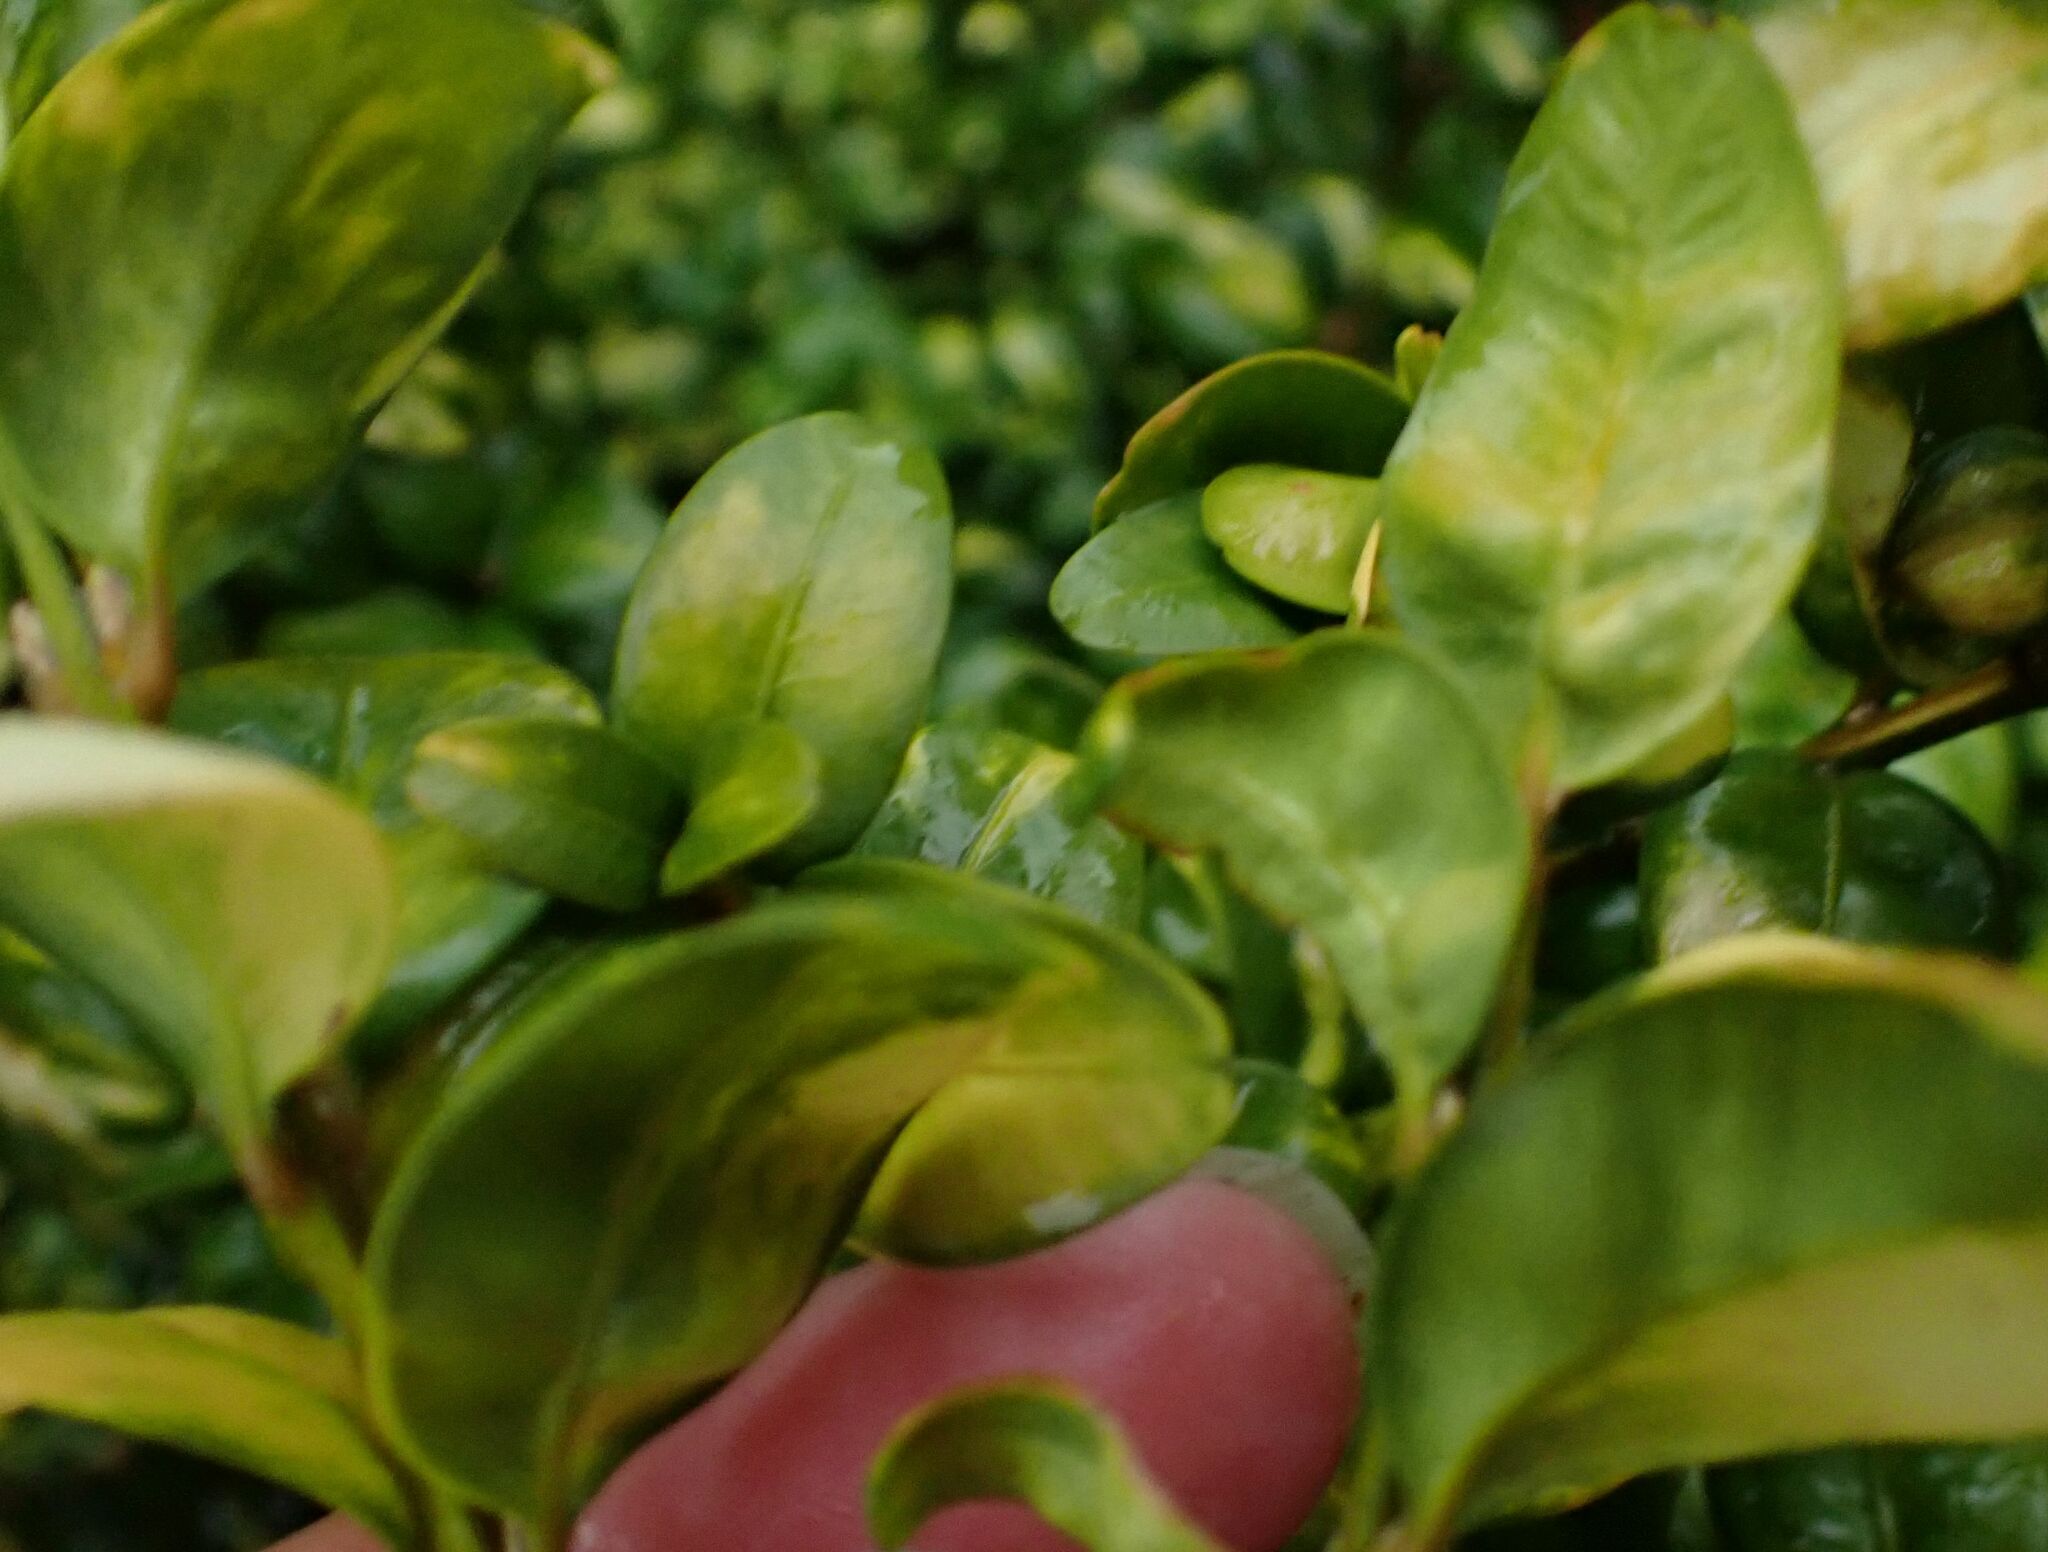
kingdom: Animalia
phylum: Arthropoda
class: Insecta
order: Diptera
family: Cecidomyiidae
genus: Monarthropalpus
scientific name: Monarthropalpus flavus
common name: Boxwood leafminer
